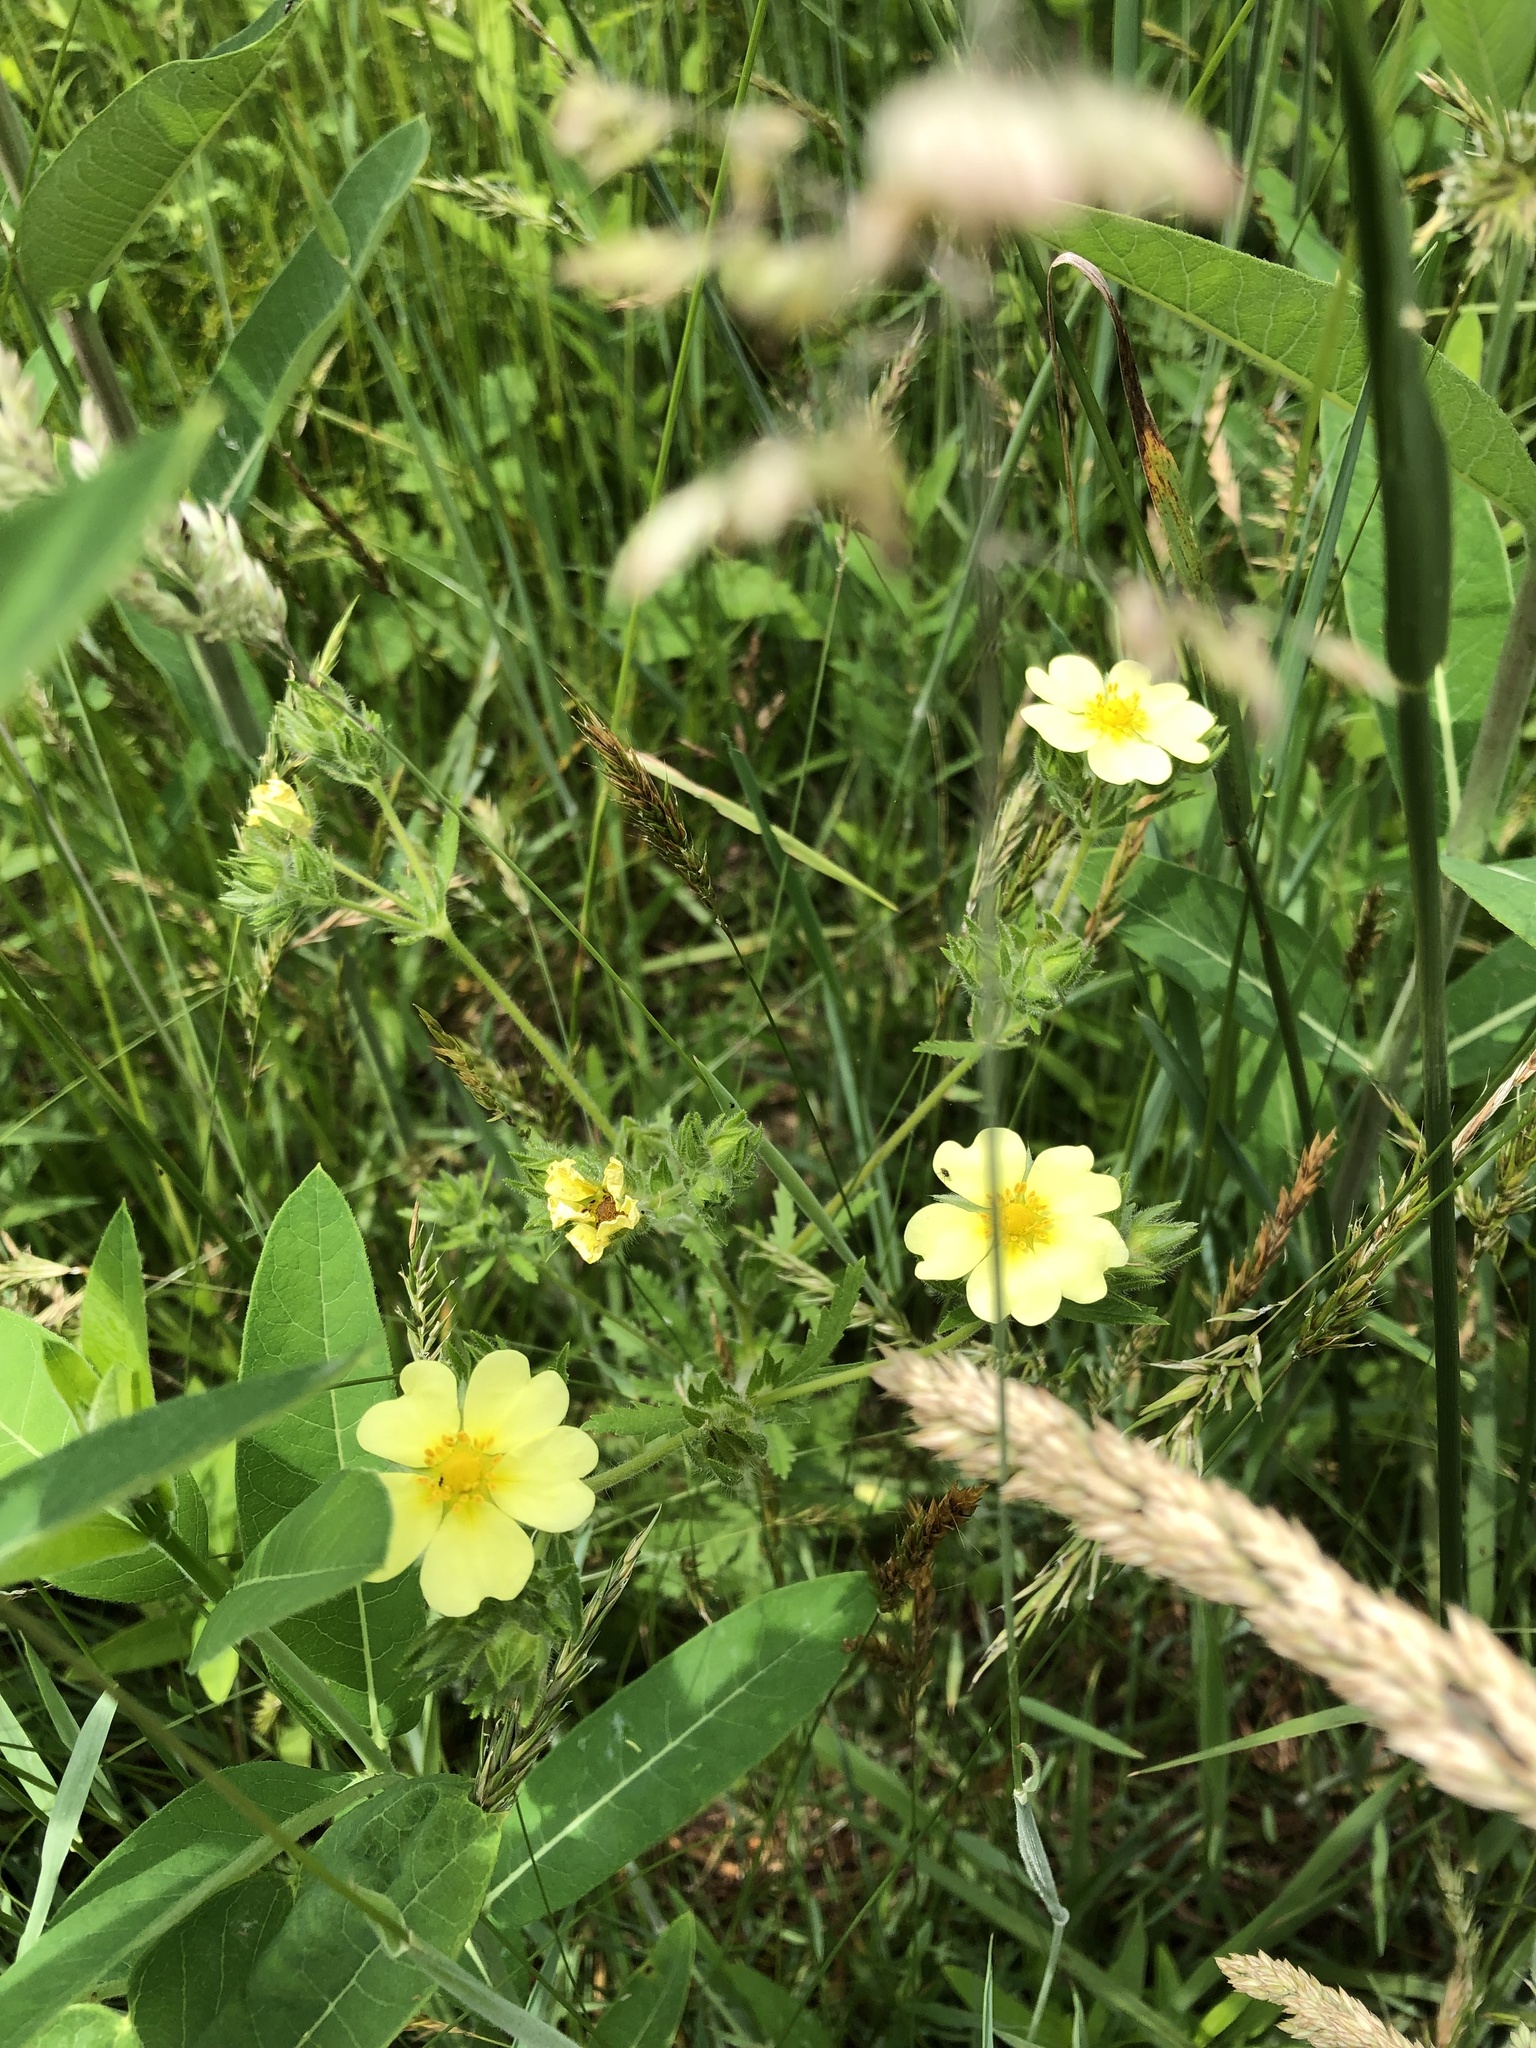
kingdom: Plantae
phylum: Tracheophyta
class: Magnoliopsida
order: Rosales
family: Rosaceae
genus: Potentilla
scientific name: Potentilla recta
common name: Sulphur cinquefoil
